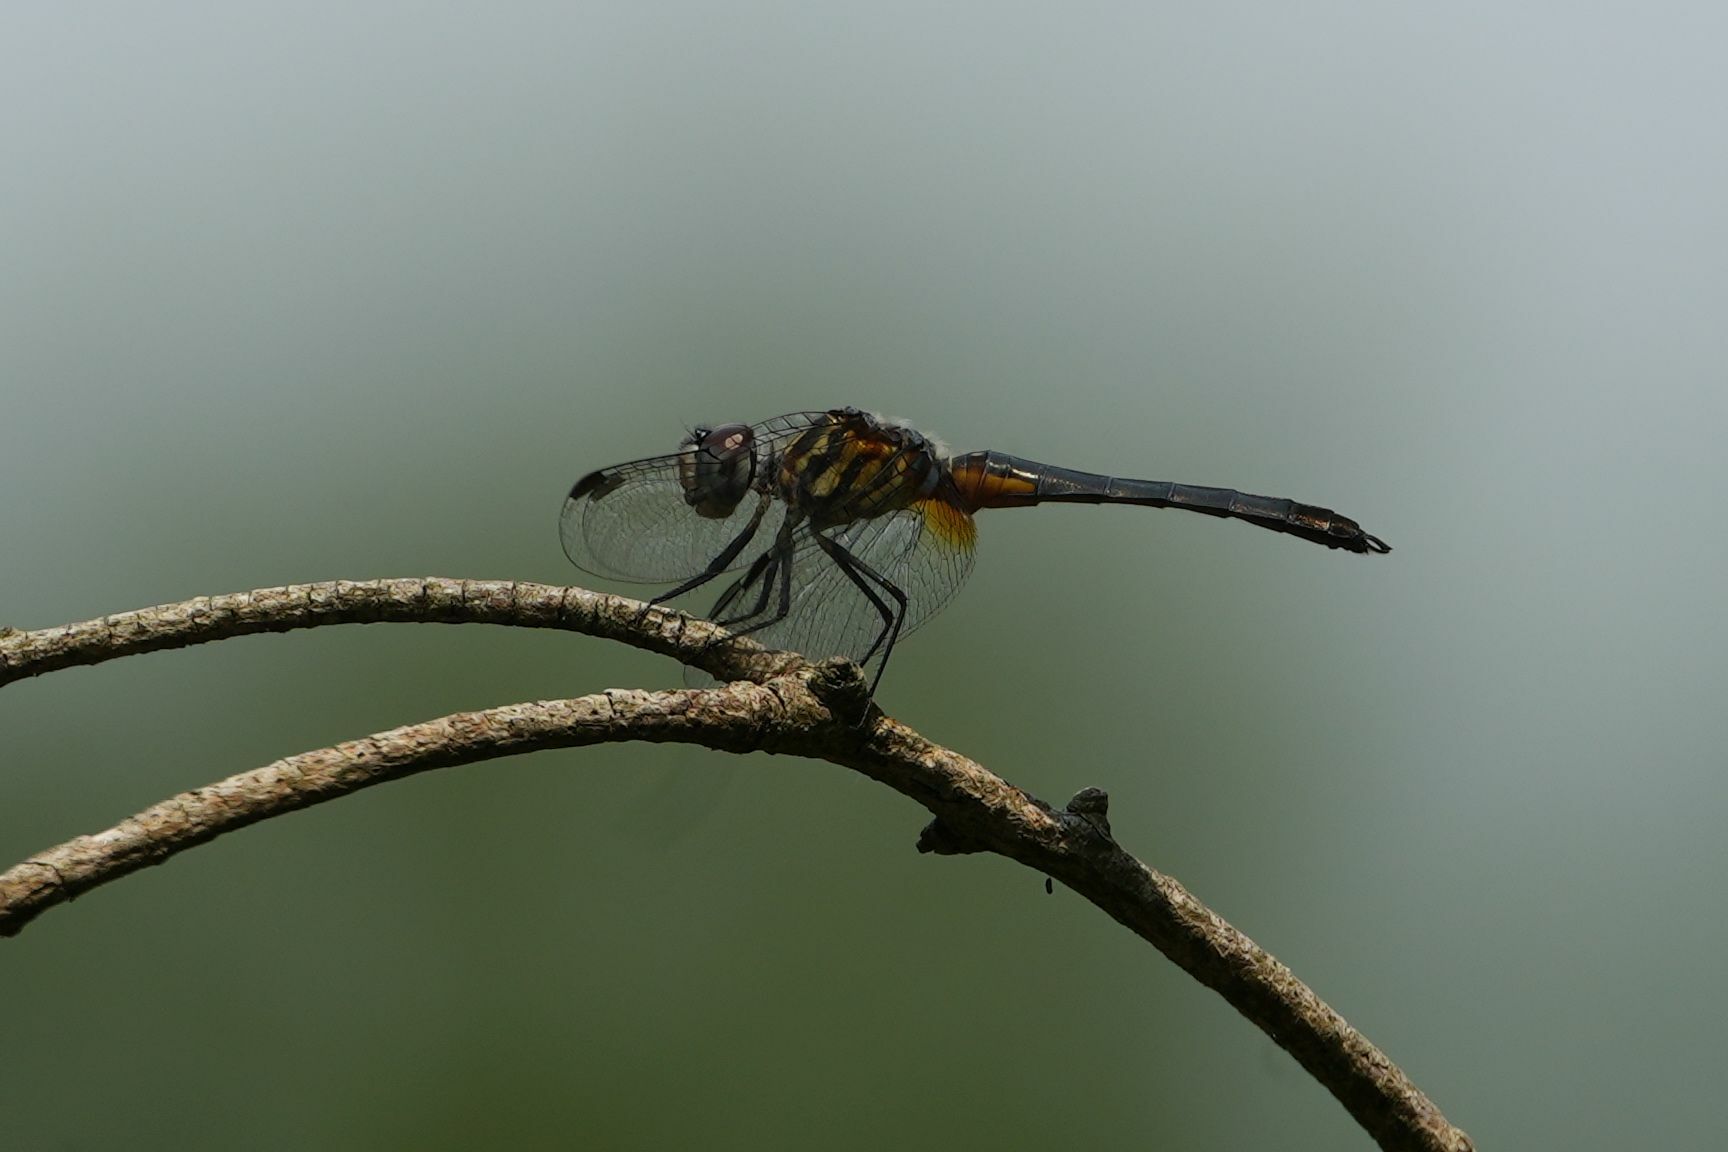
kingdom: Animalia
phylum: Arthropoda
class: Insecta
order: Odonata
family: Libellulidae
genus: Pachydiplax
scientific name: Pachydiplax longipennis
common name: Blue dasher
